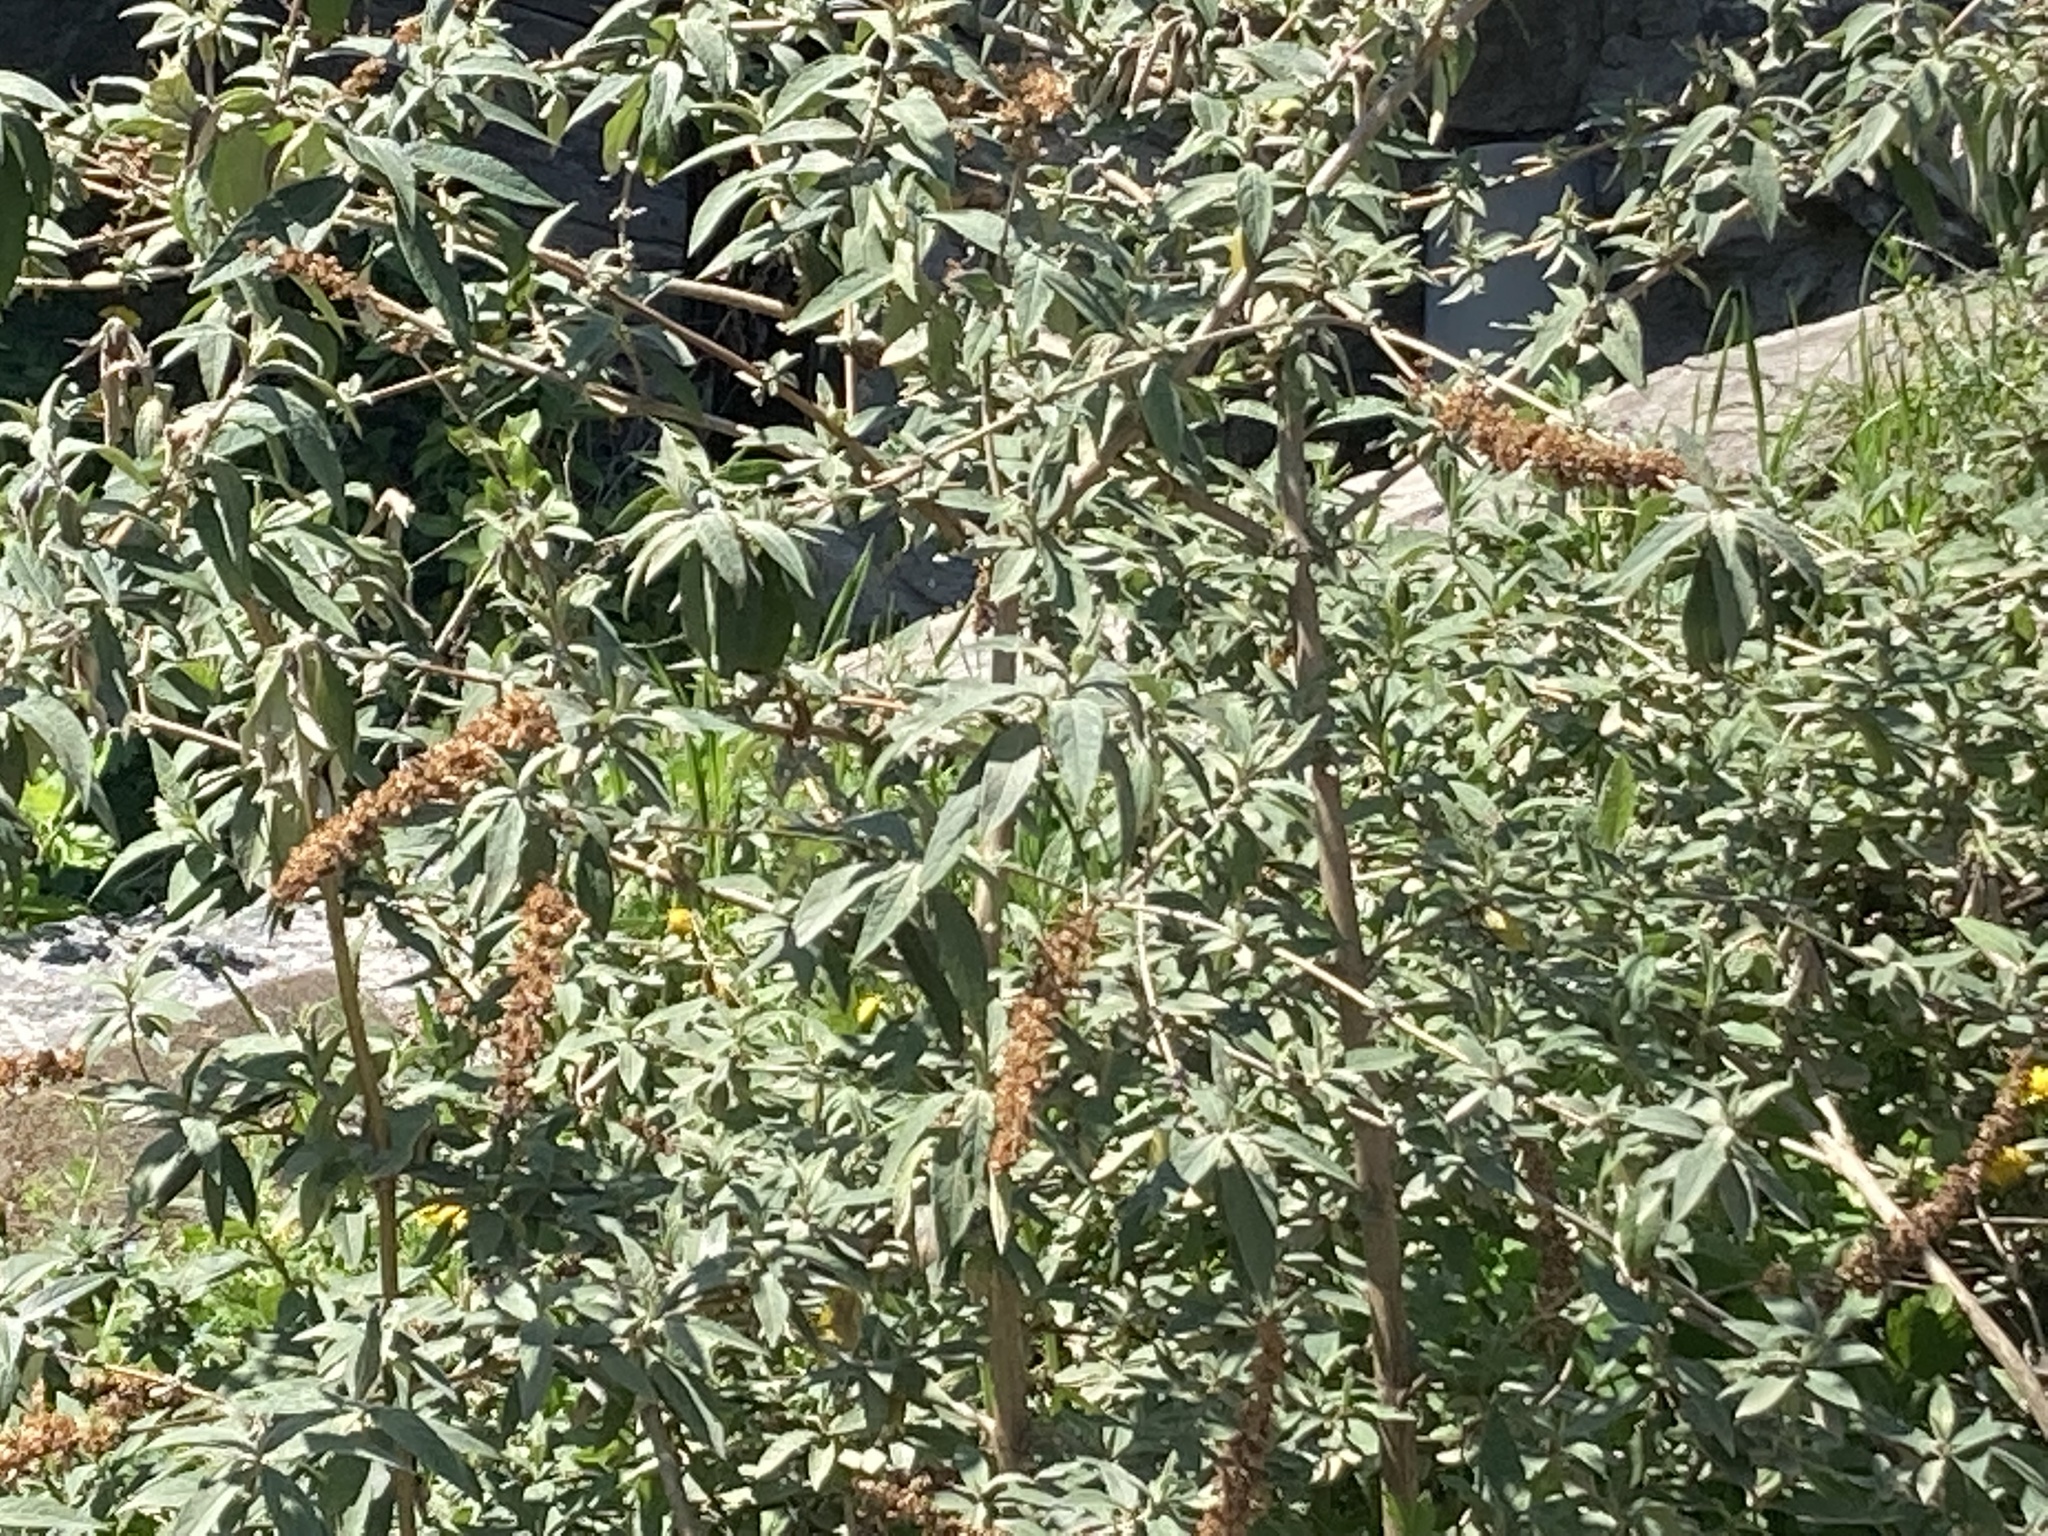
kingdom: Plantae
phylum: Tracheophyta
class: Magnoliopsida
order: Lamiales
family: Scrophulariaceae
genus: Buddleja
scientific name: Buddleja davidii
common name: Butterfly-bush
